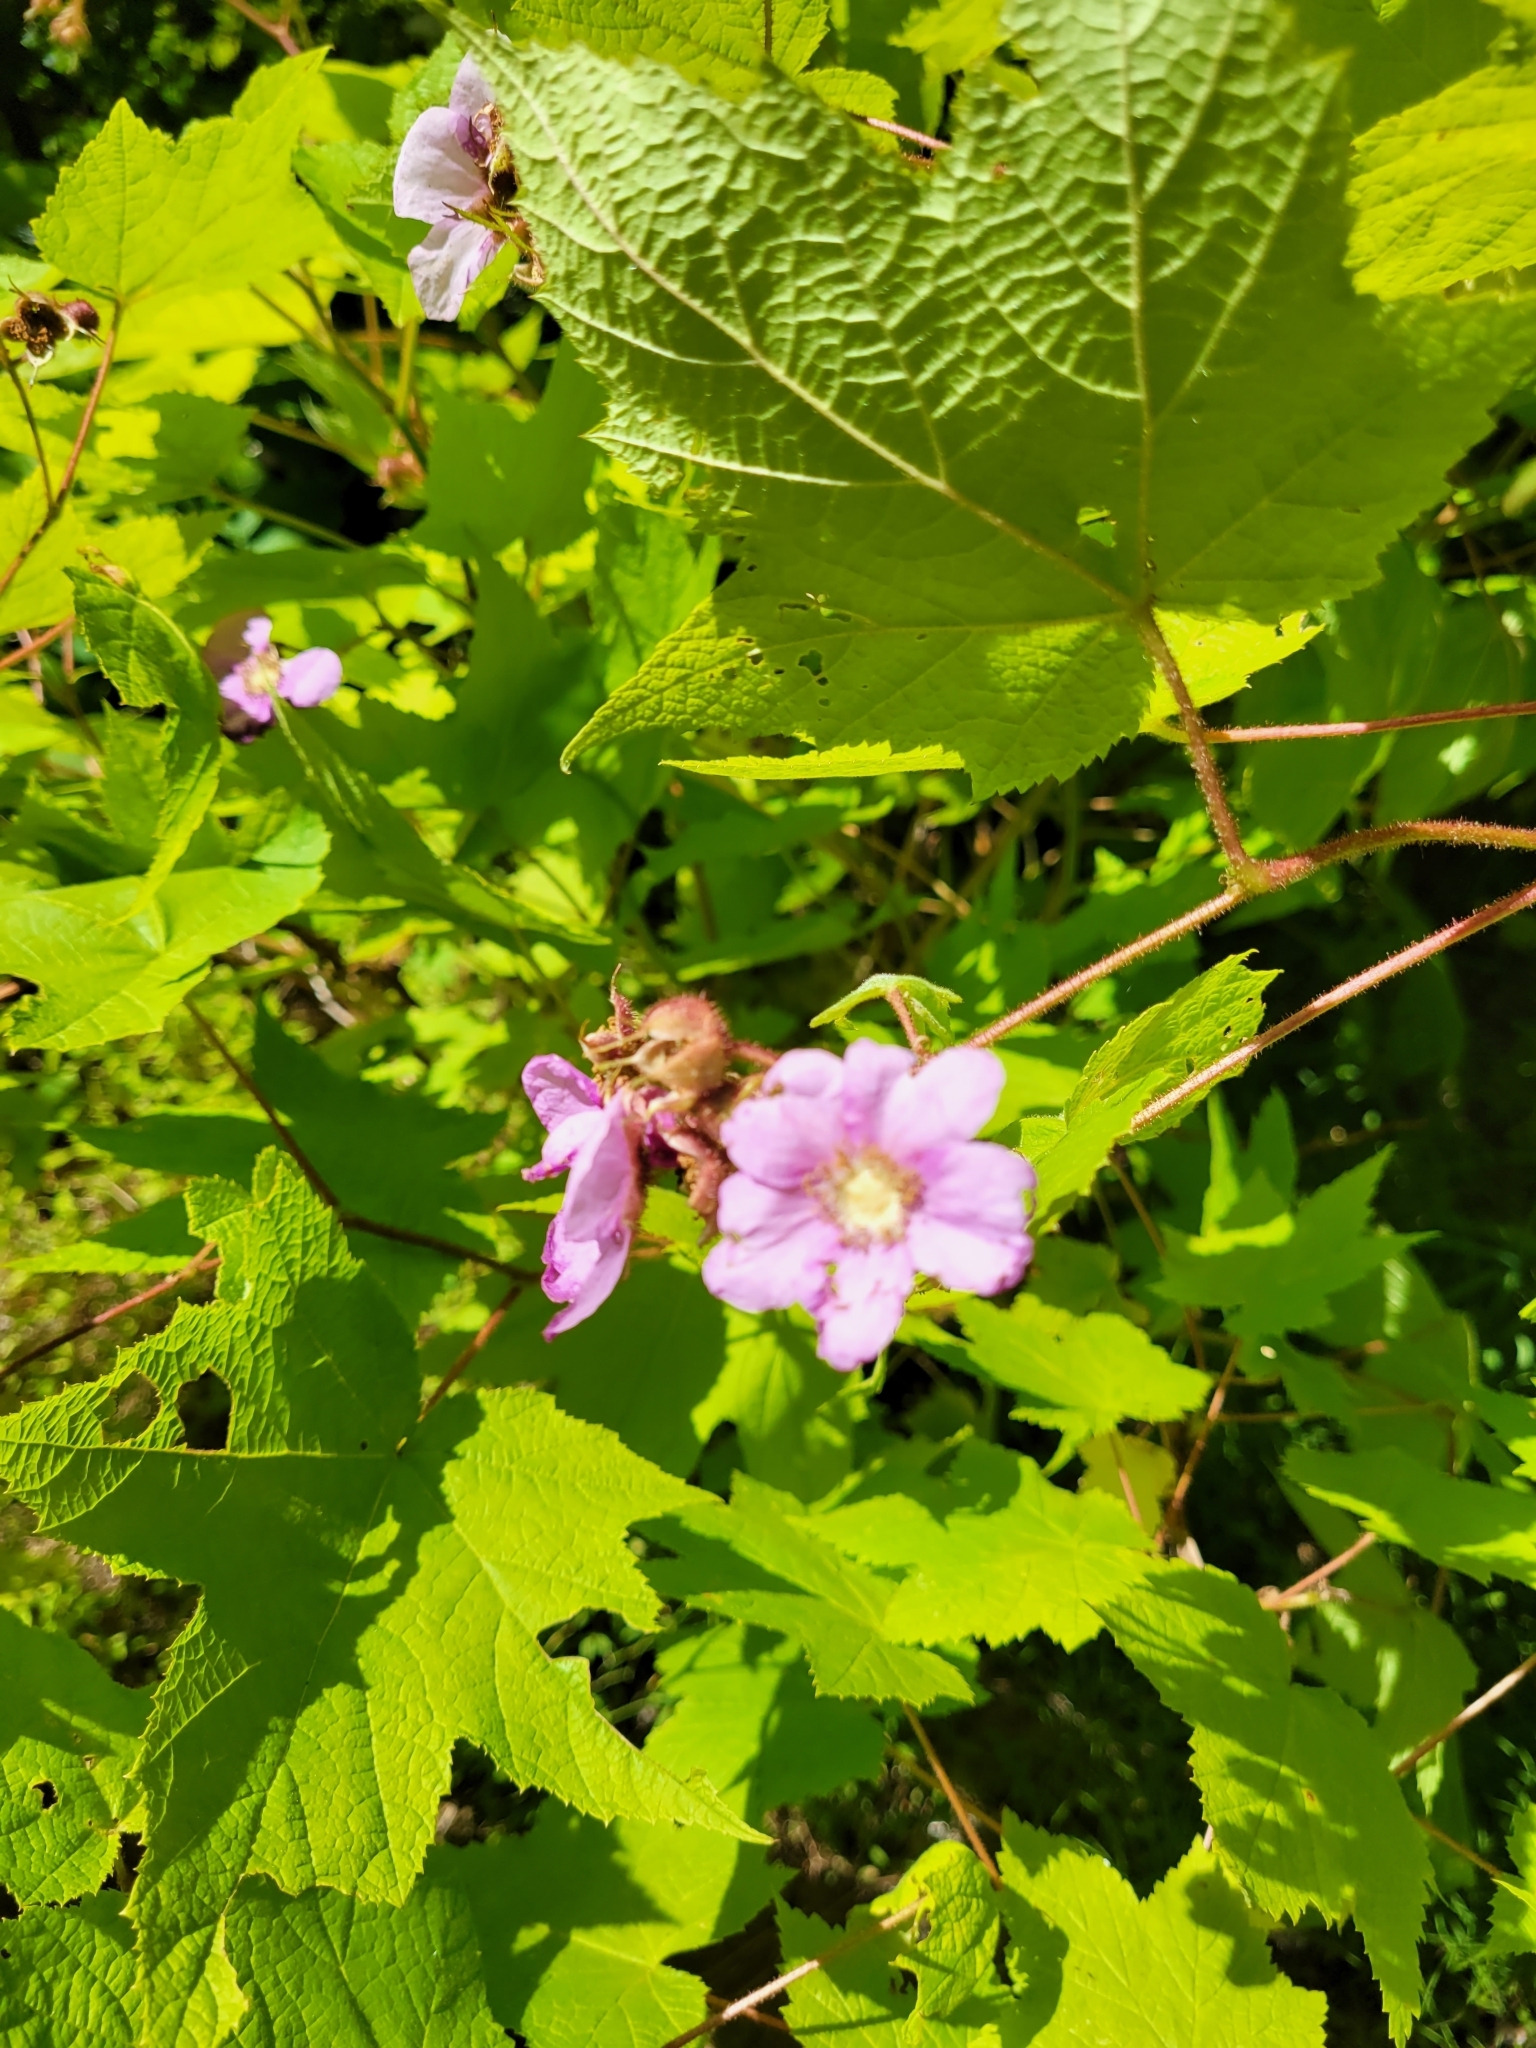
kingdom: Plantae
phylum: Tracheophyta
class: Magnoliopsida
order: Rosales
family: Rosaceae
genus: Rubus
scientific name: Rubus odoratus
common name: Purple-flowered raspberry
